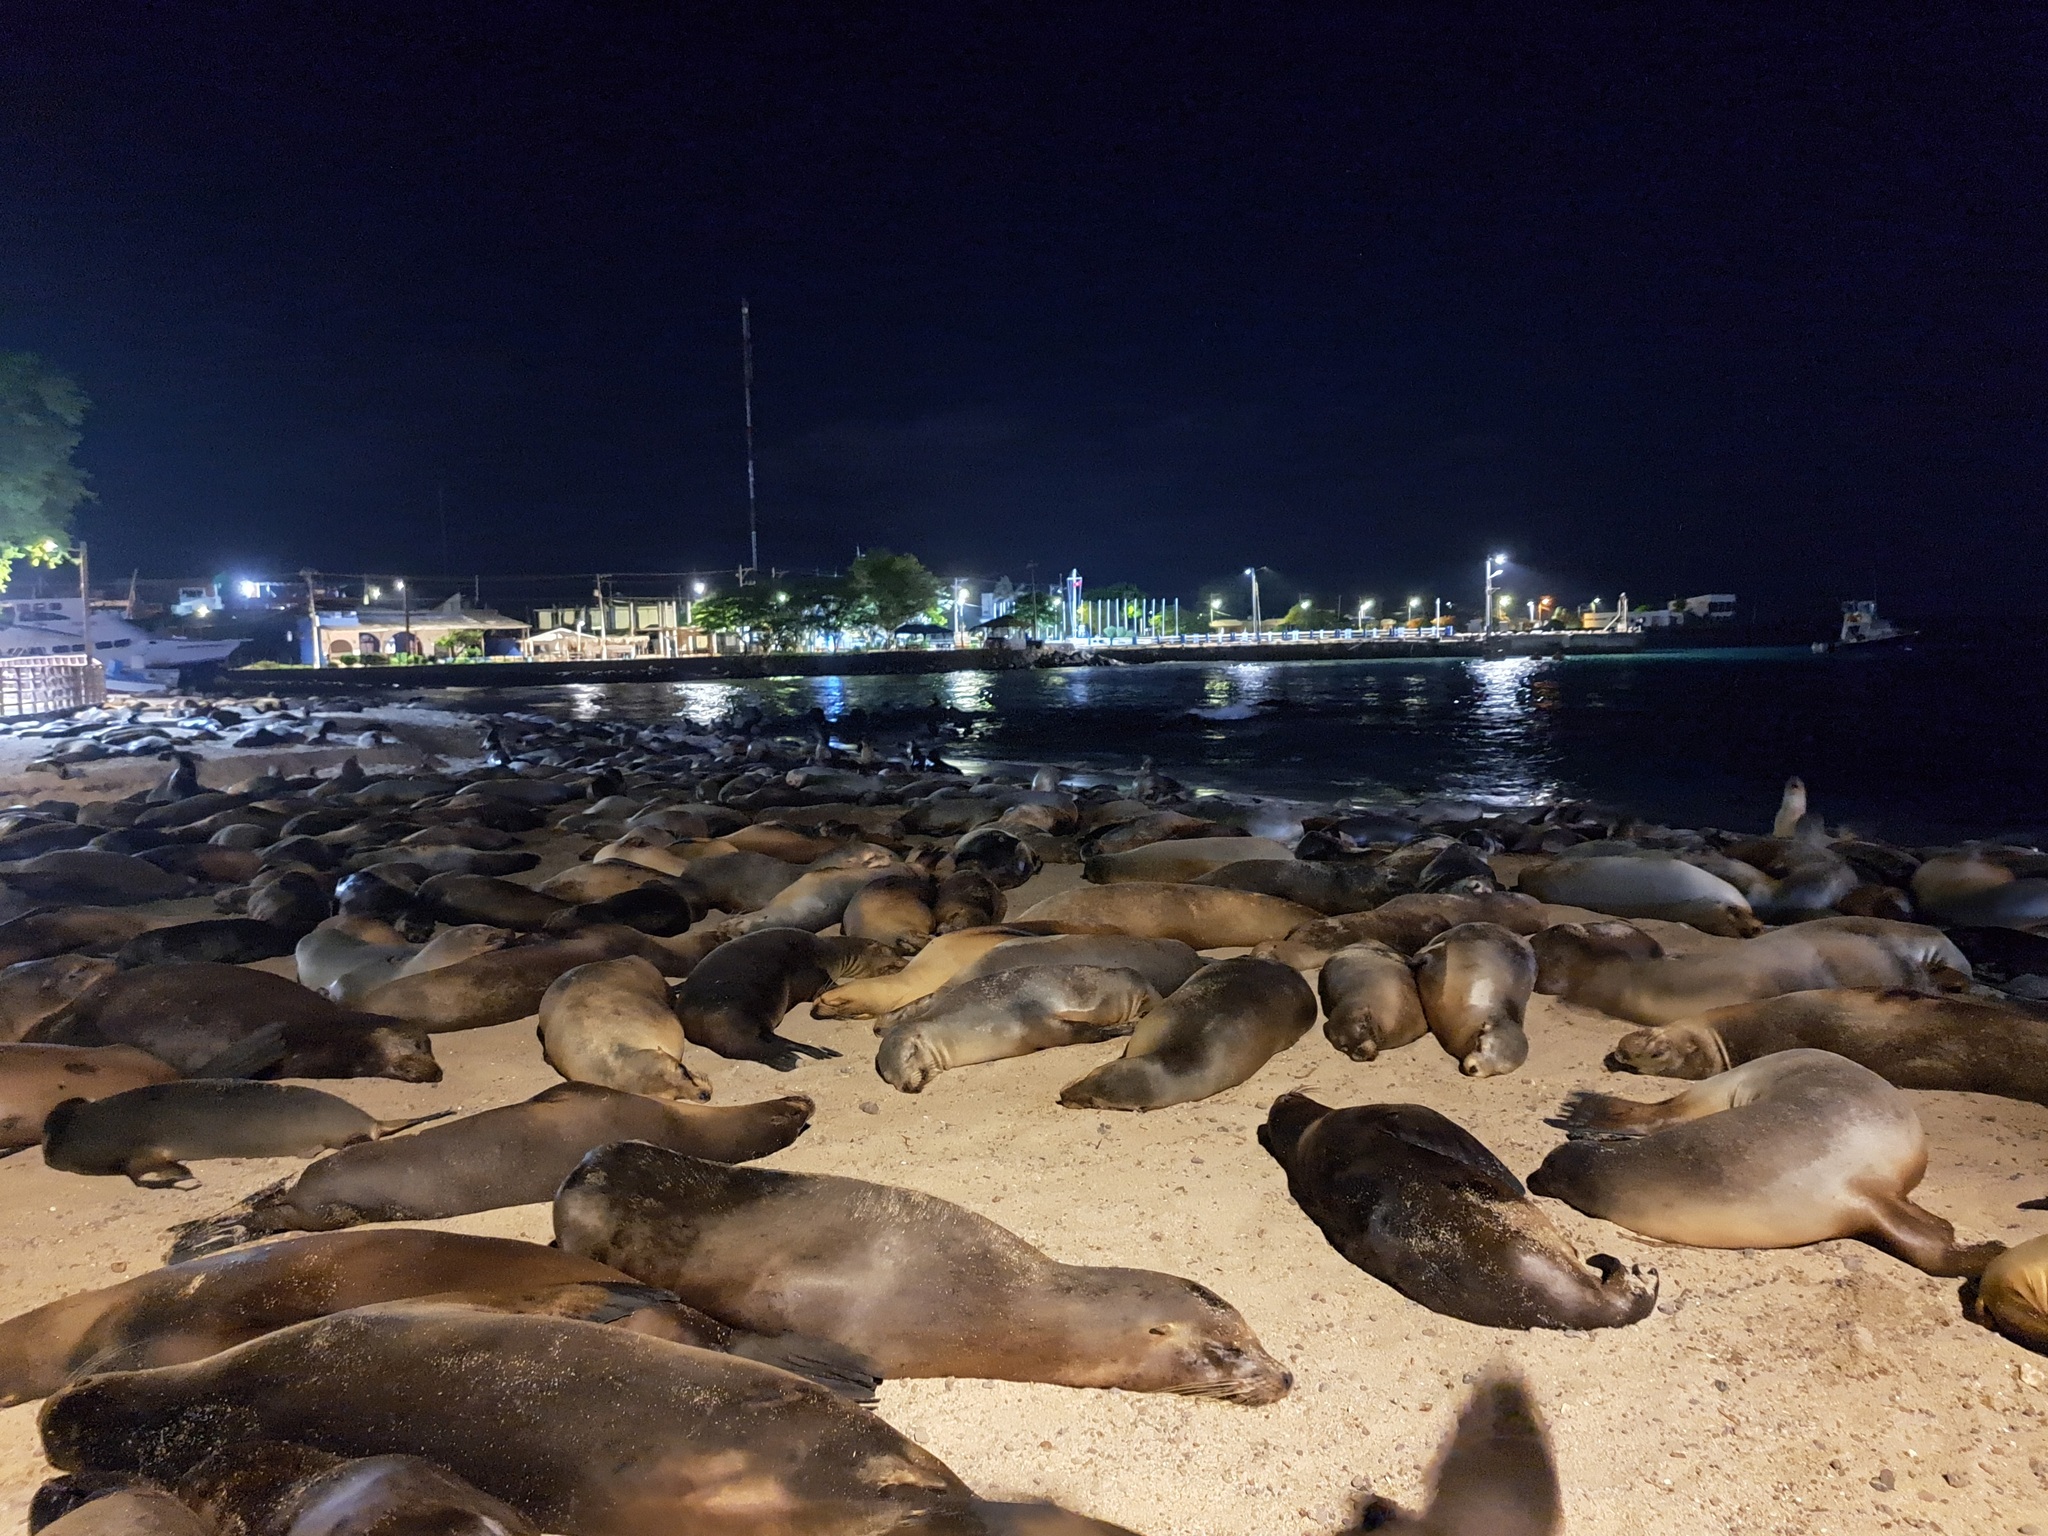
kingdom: Animalia
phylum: Chordata
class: Mammalia
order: Carnivora
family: Otariidae
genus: Zalophus
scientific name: Zalophus wollebaeki
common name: Galapagos sea lion
